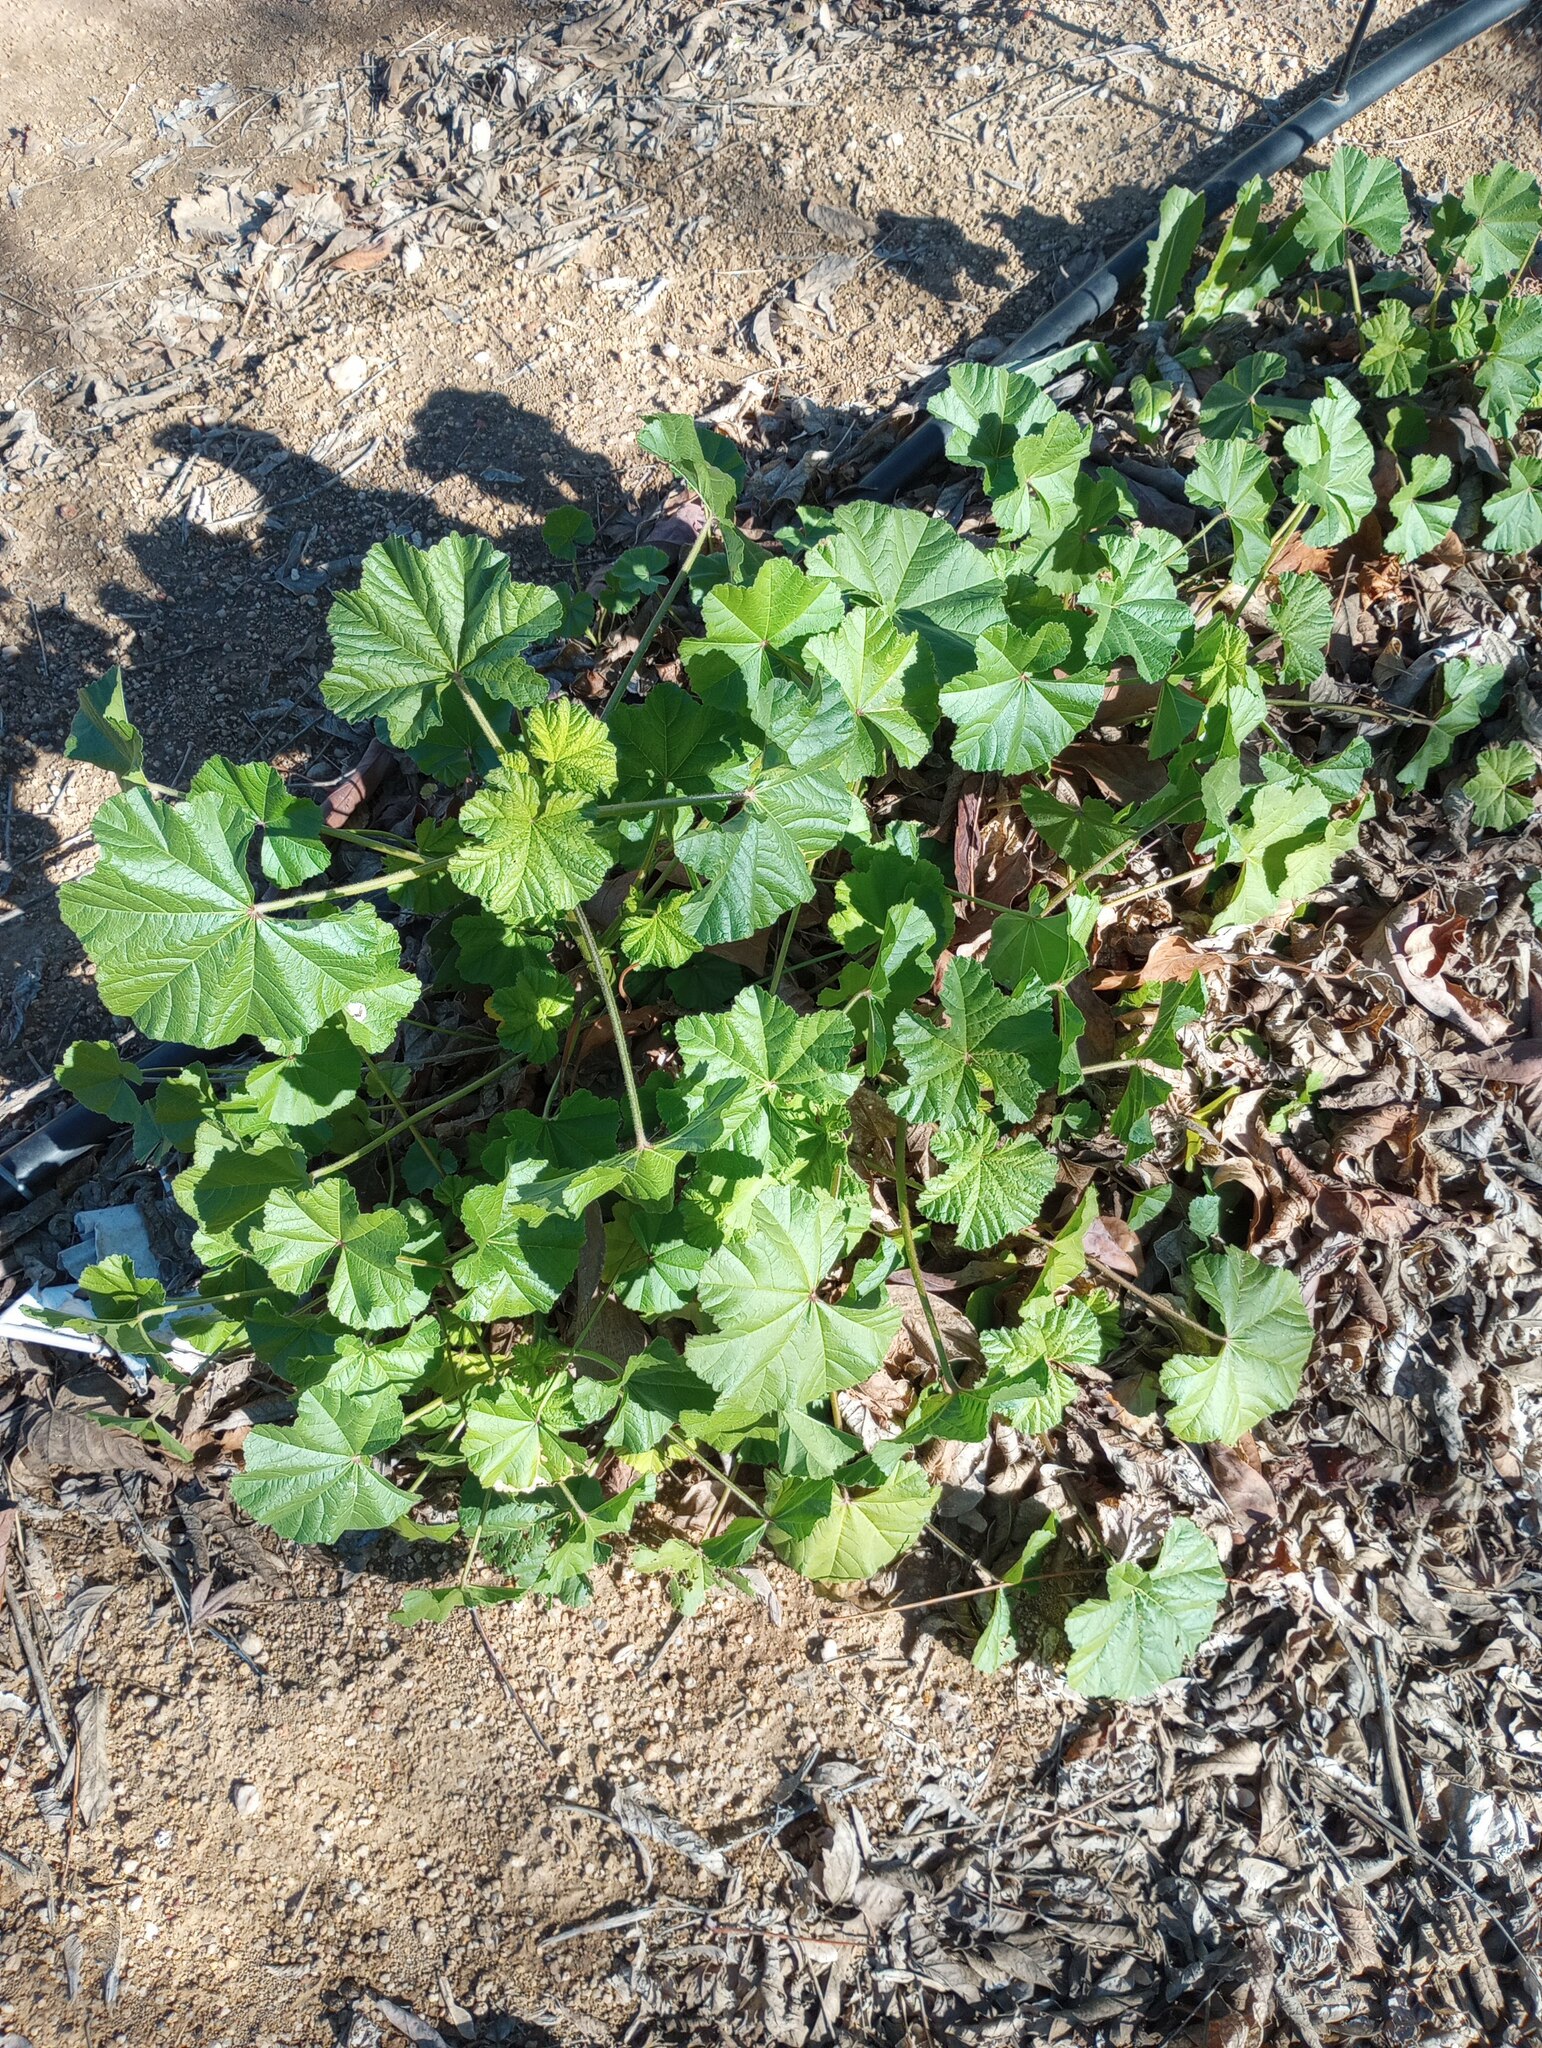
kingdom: Plantae
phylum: Tracheophyta
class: Magnoliopsida
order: Malvales
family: Malvaceae
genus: Malva
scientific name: Malva parviflora
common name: Least mallow
